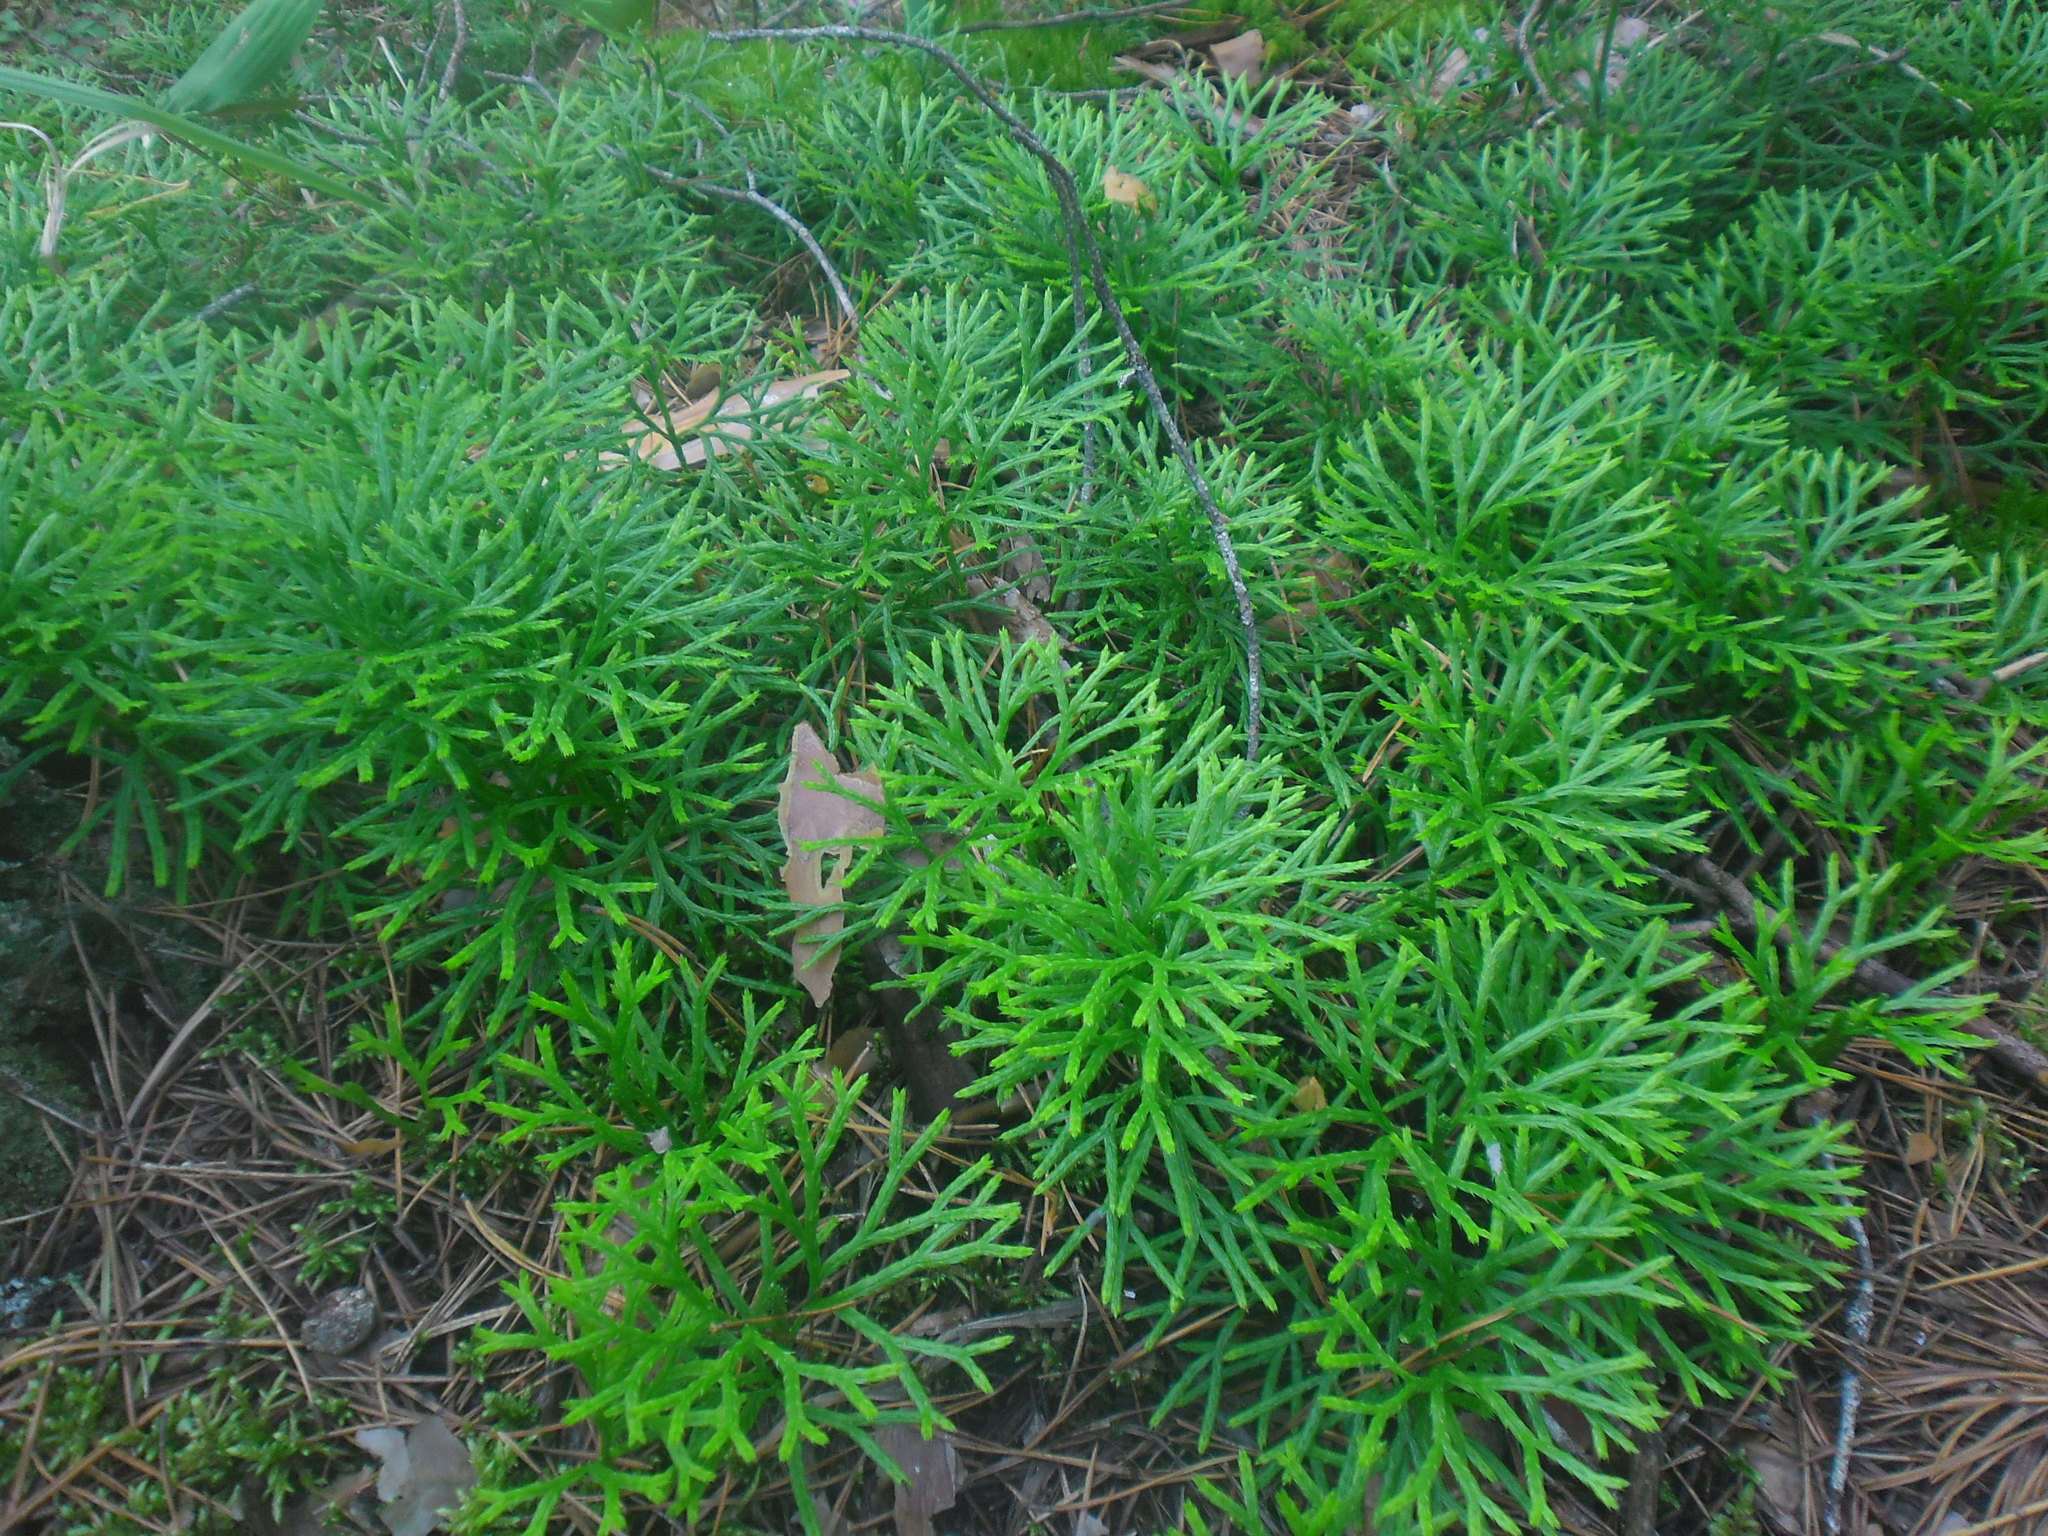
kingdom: Plantae
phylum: Tracheophyta
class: Lycopodiopsida
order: Lycopodiales
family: Lycopodiaceae
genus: Diphasiastrum
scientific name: Diphasiastrum complanatum
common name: Northern running-pine
